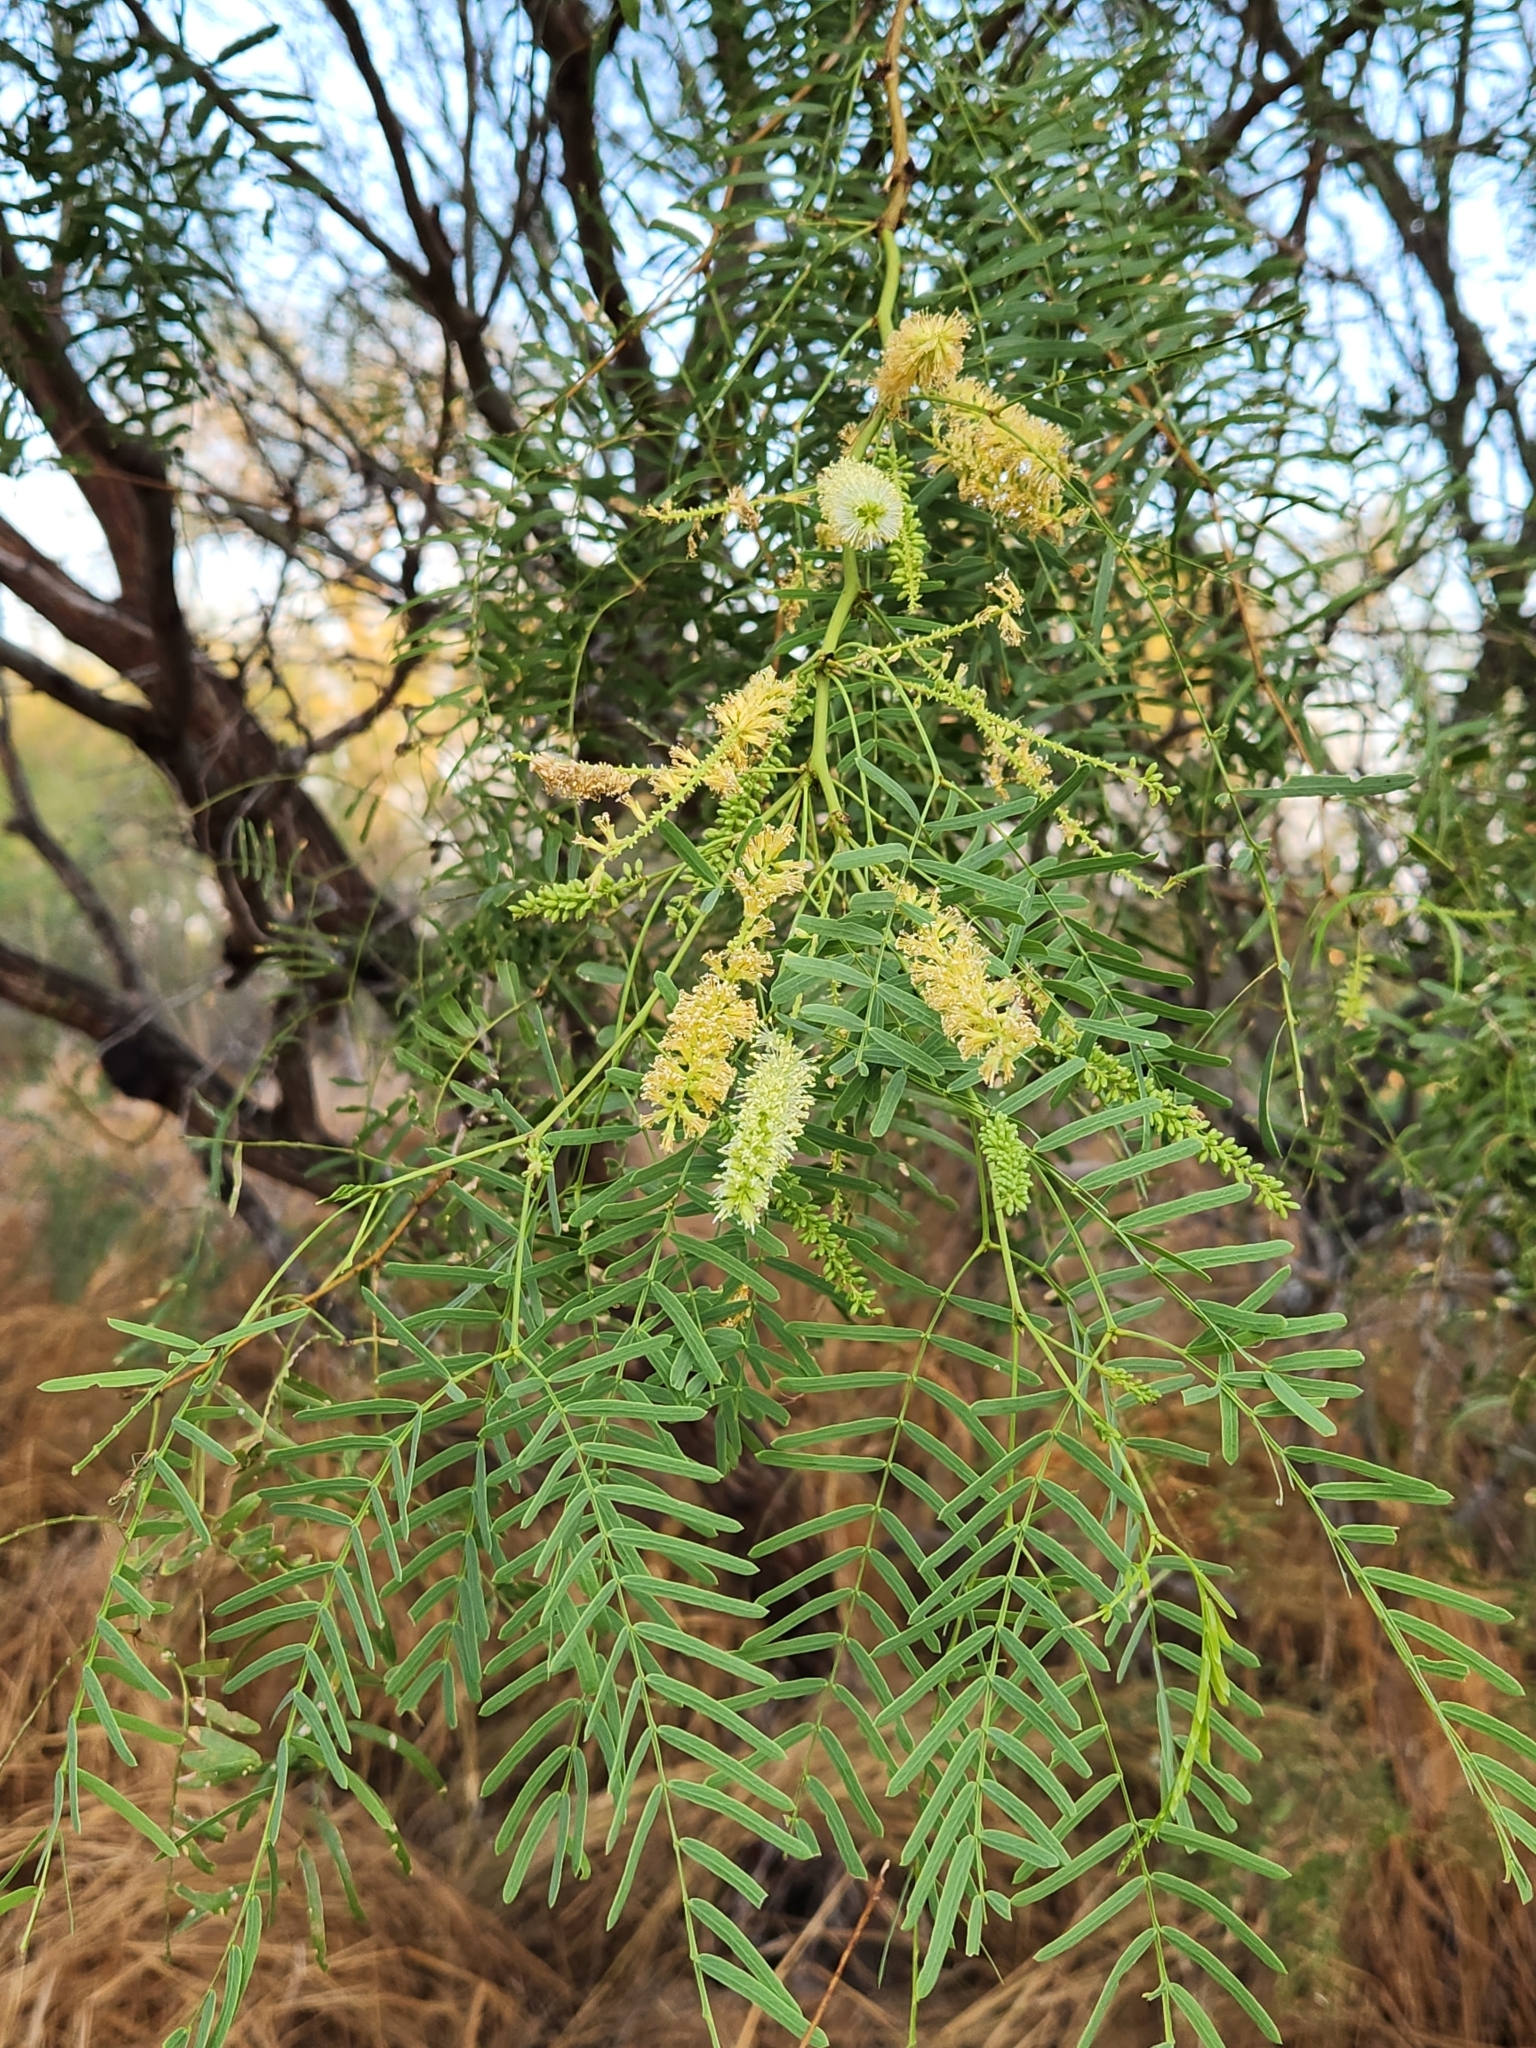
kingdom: Plantae
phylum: Tracheophyta
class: Magnoliopsida
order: Fabales
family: Fabaceae
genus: Prosopis
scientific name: Prosopis glandulosa
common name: Honey mesquite
